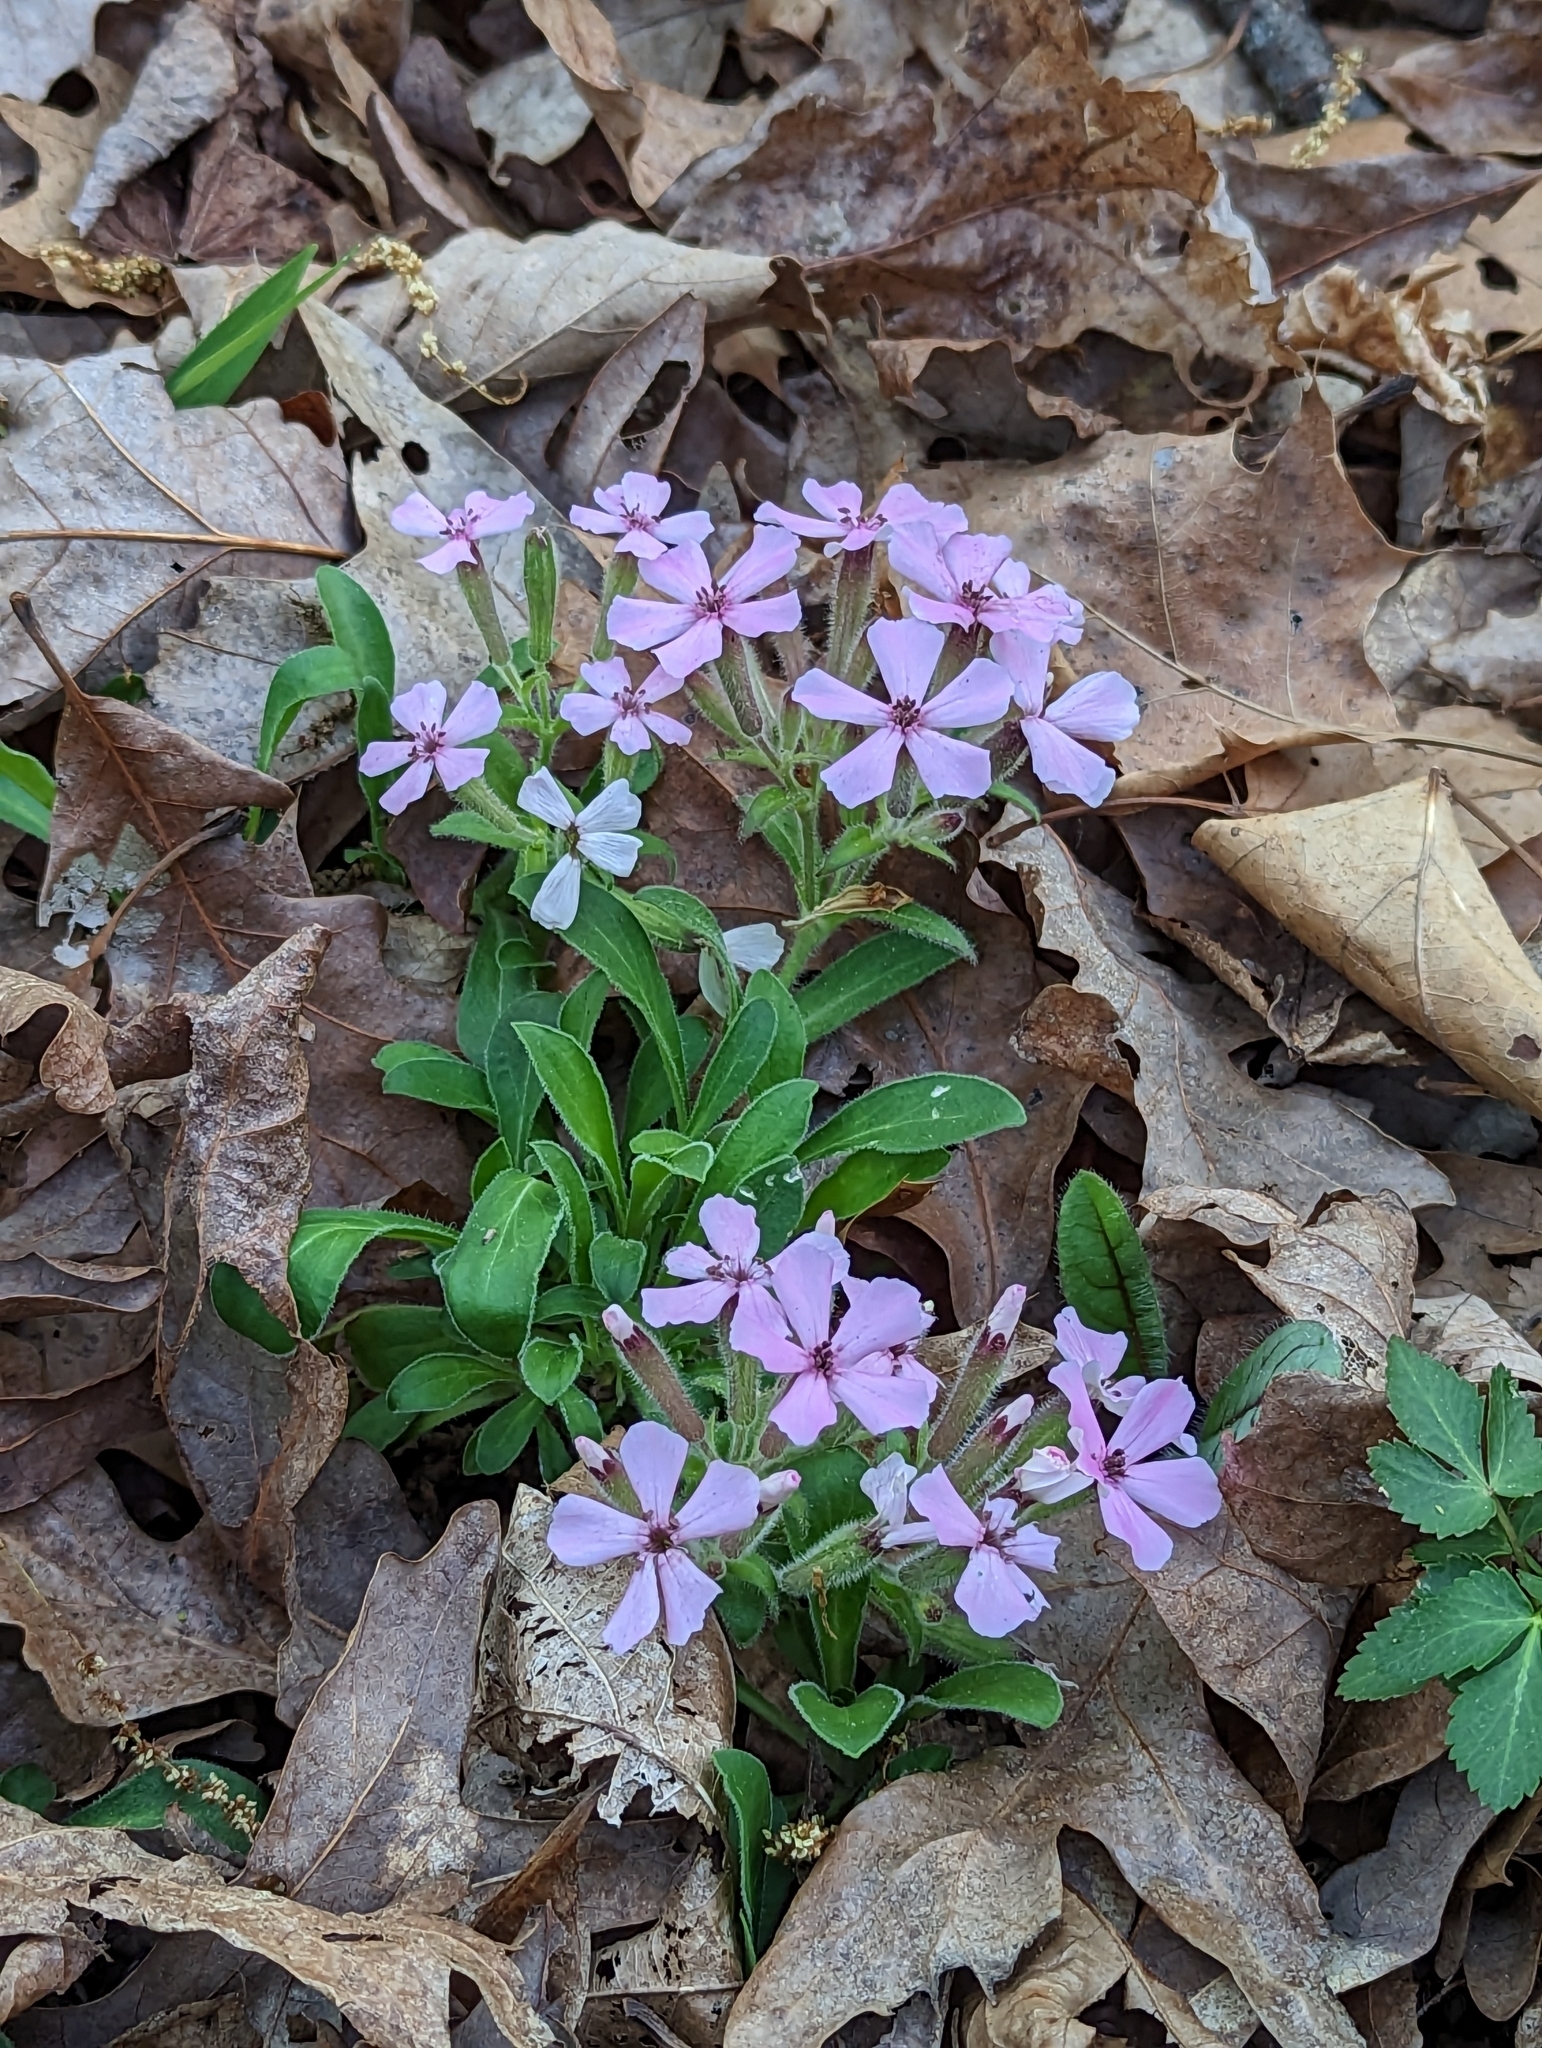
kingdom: Plantae
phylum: Tracheophyta
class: Magnoliopsida
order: Caryophyllales
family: Caryophyllaceae
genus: Silene
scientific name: Silene caroliniana
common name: Sticky catchfly
